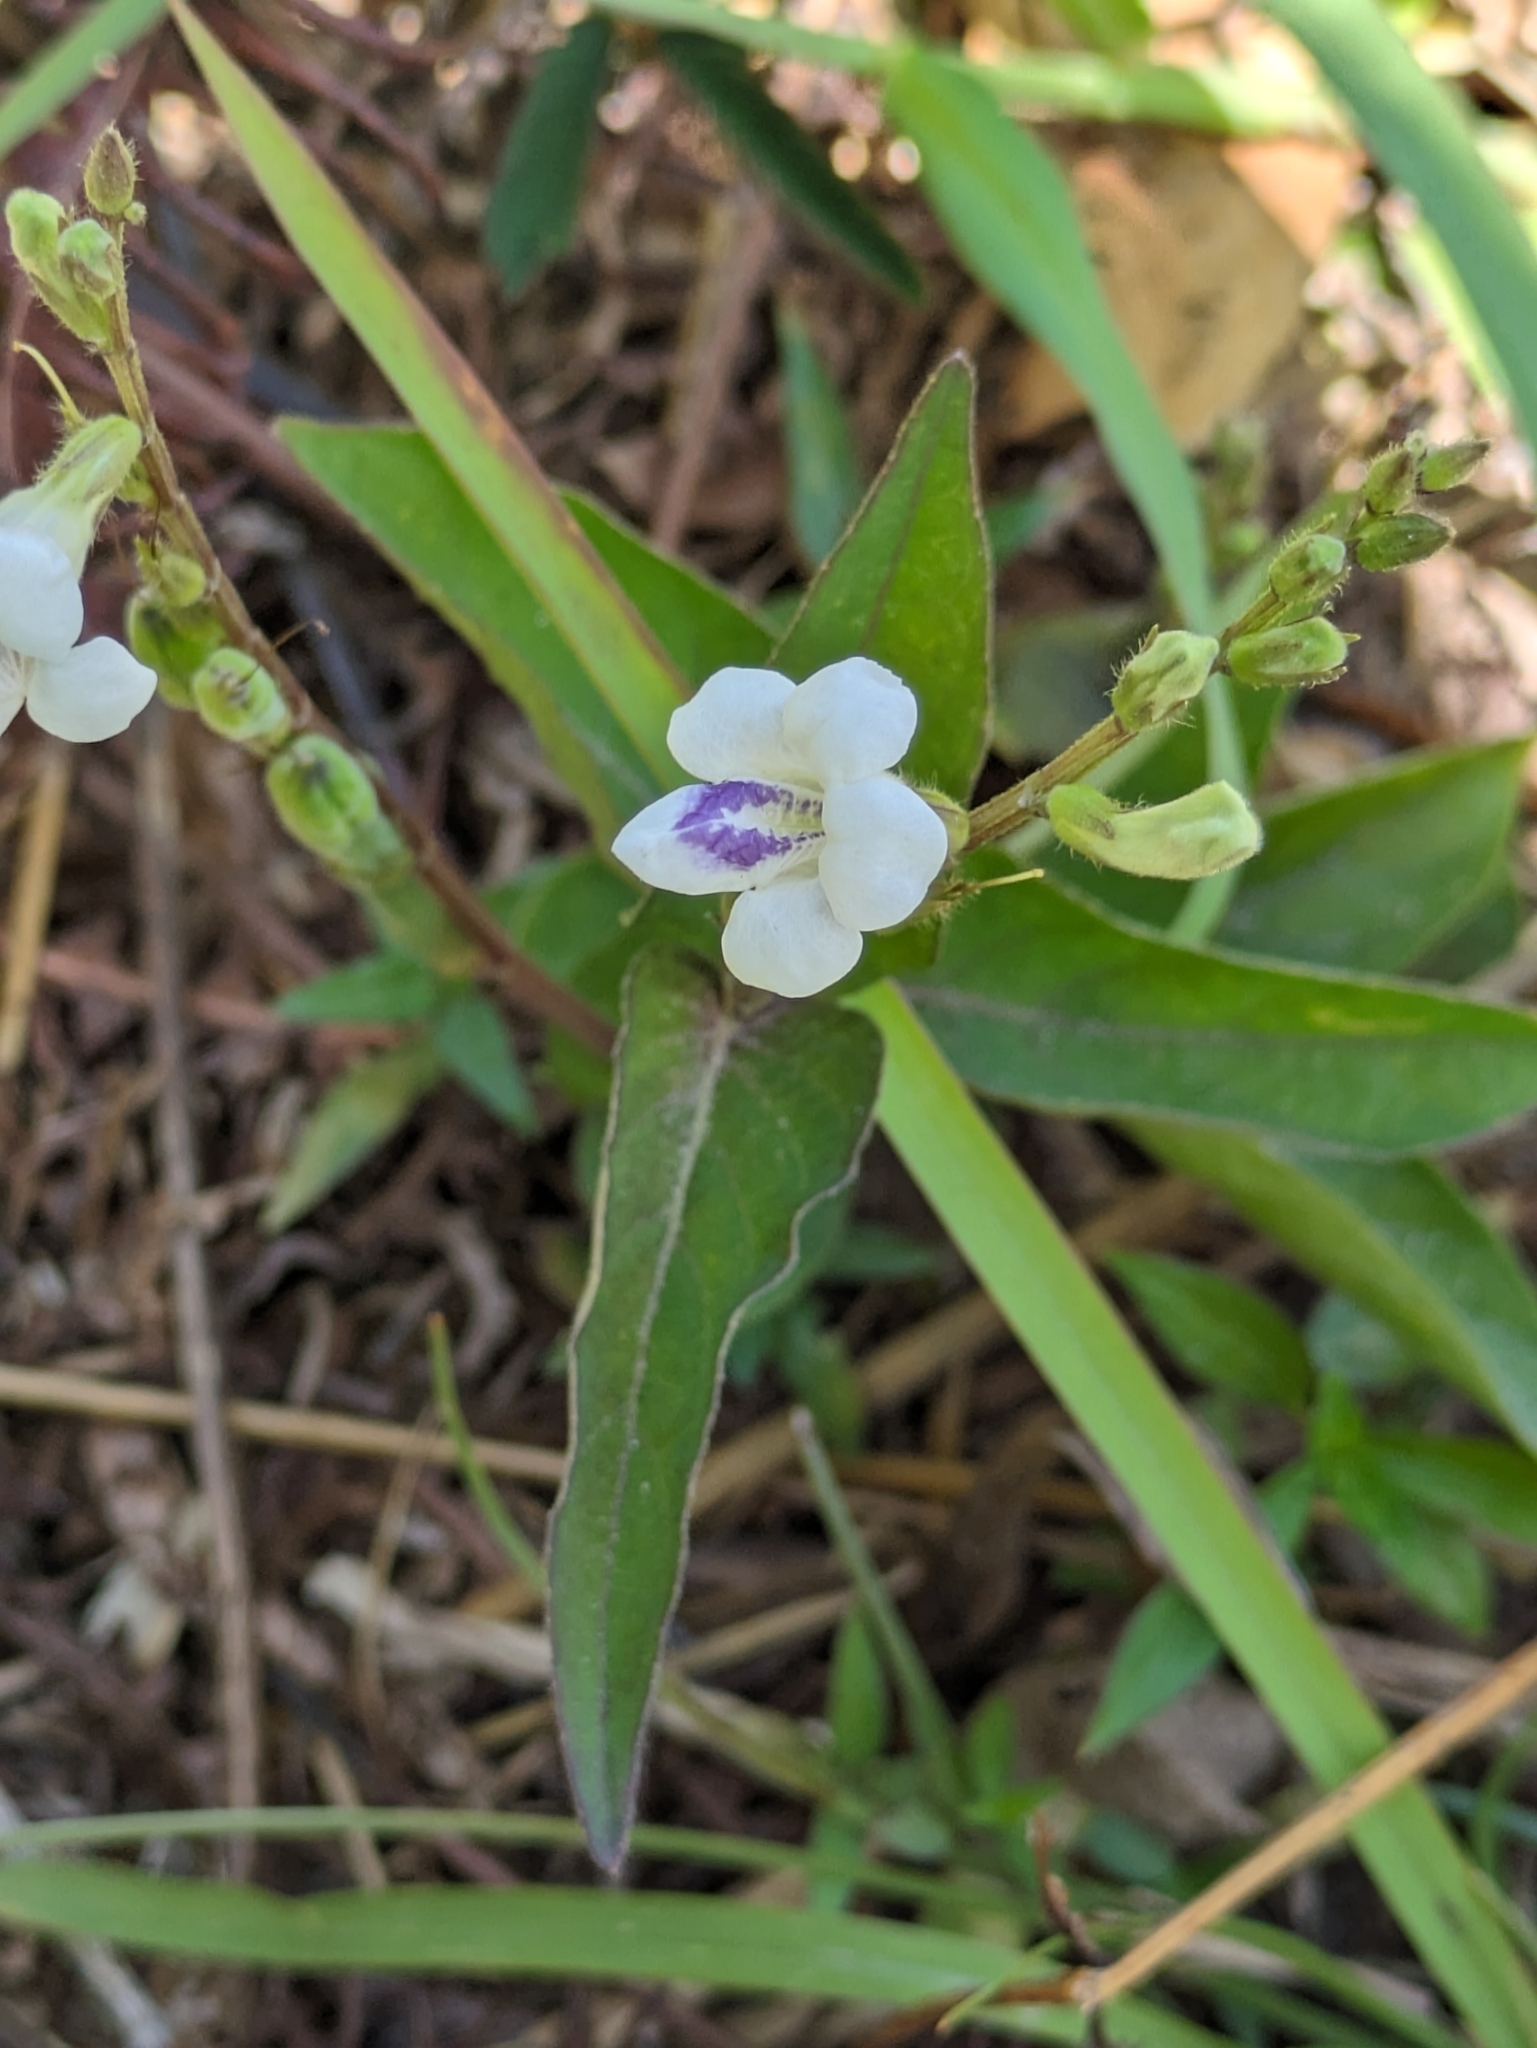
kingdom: Plantae
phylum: Tracheophyta
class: Magnoliopsida
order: Lamiales
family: Acanthaceae
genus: Asystasia
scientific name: Asystasia intrusa
